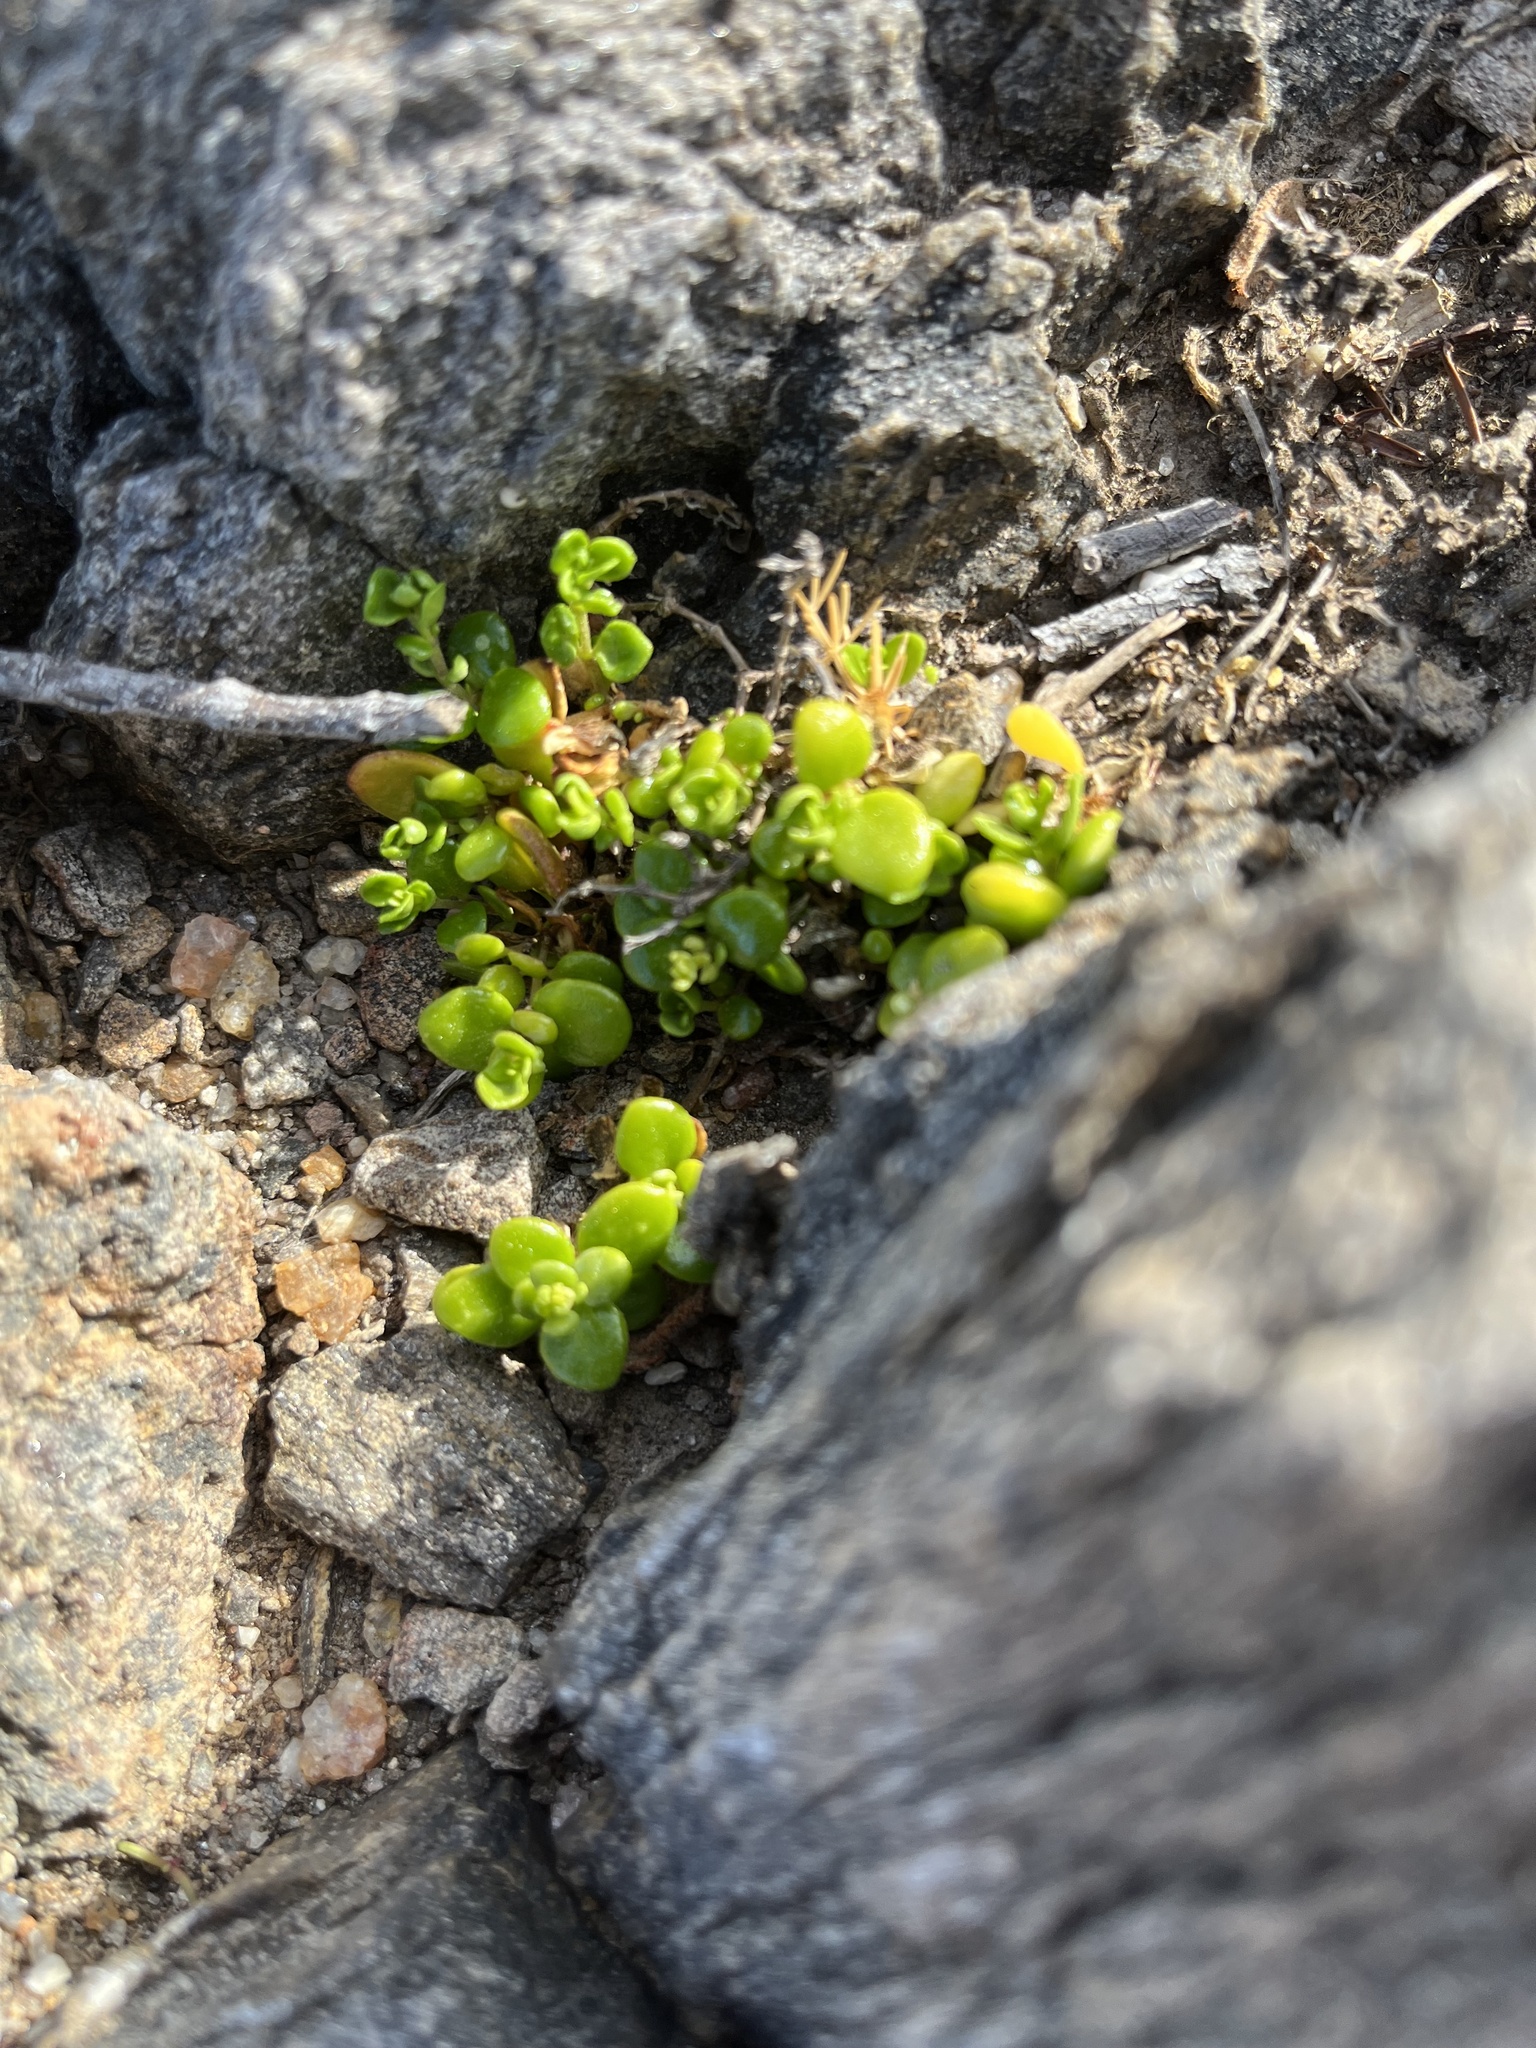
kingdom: Plantae
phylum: Tracheophyta
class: Magnoliopsida
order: Caryophyllales
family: Caryophyllaceae
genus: Polycarpon
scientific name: Polycarpon polycarpoides
